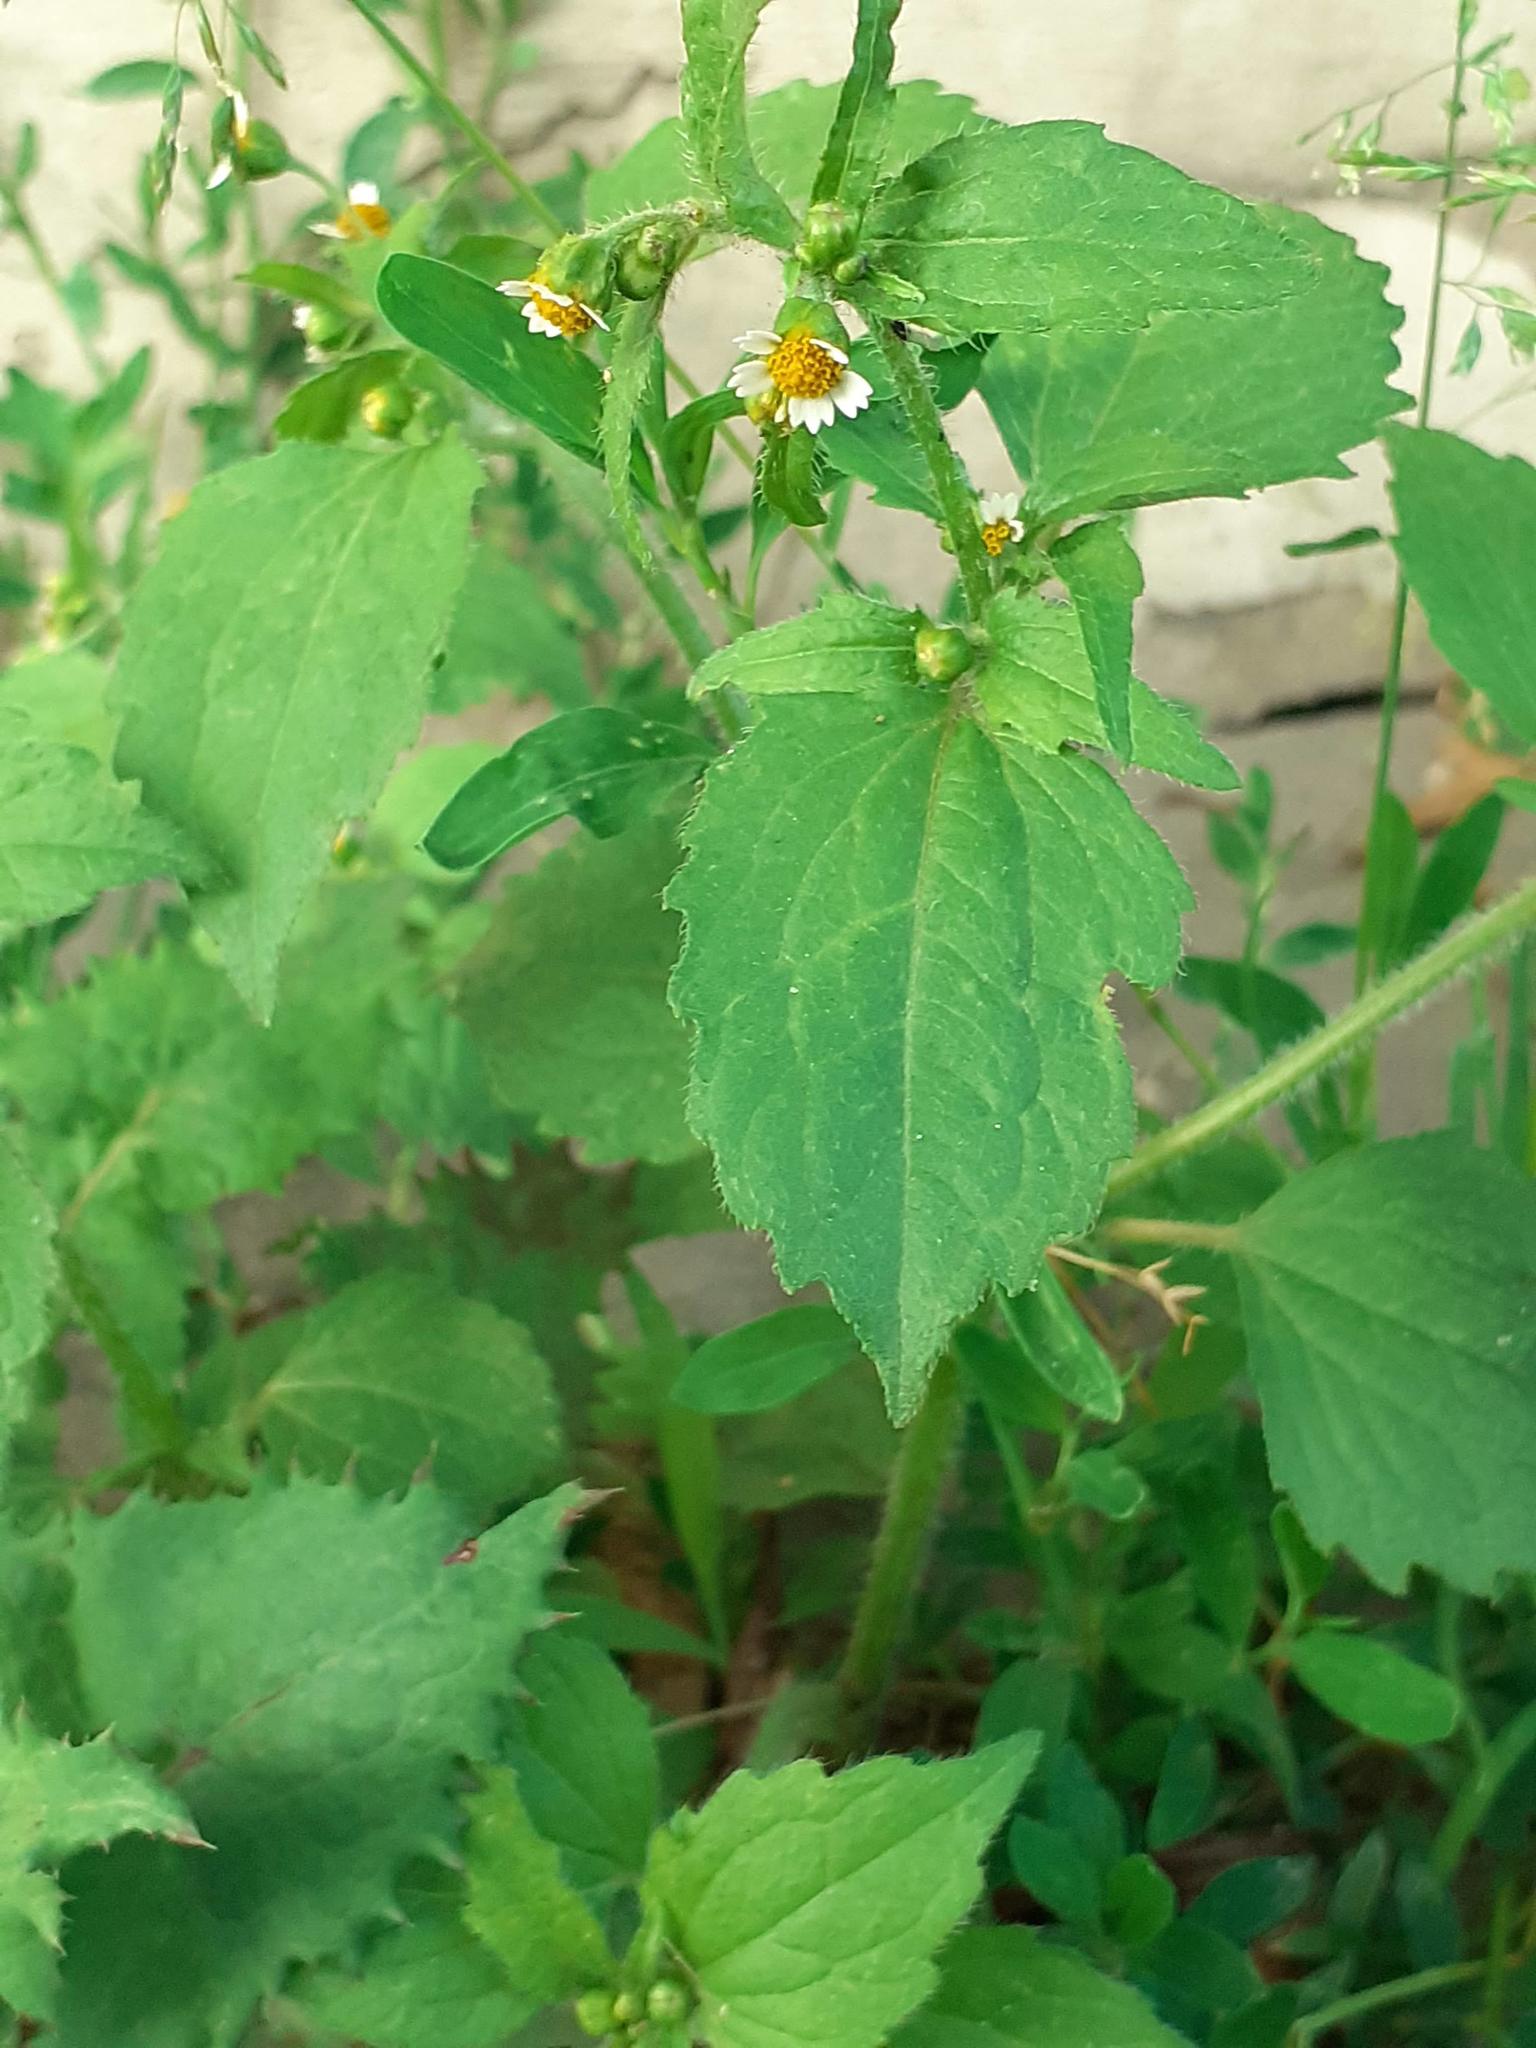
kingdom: Plantae
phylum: Tracheophyta
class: Magnoliopsida
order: Asterales
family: Asteraceae
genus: Galinsoga
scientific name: Galinsoga quadriradiata
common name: Shaggy soldier
